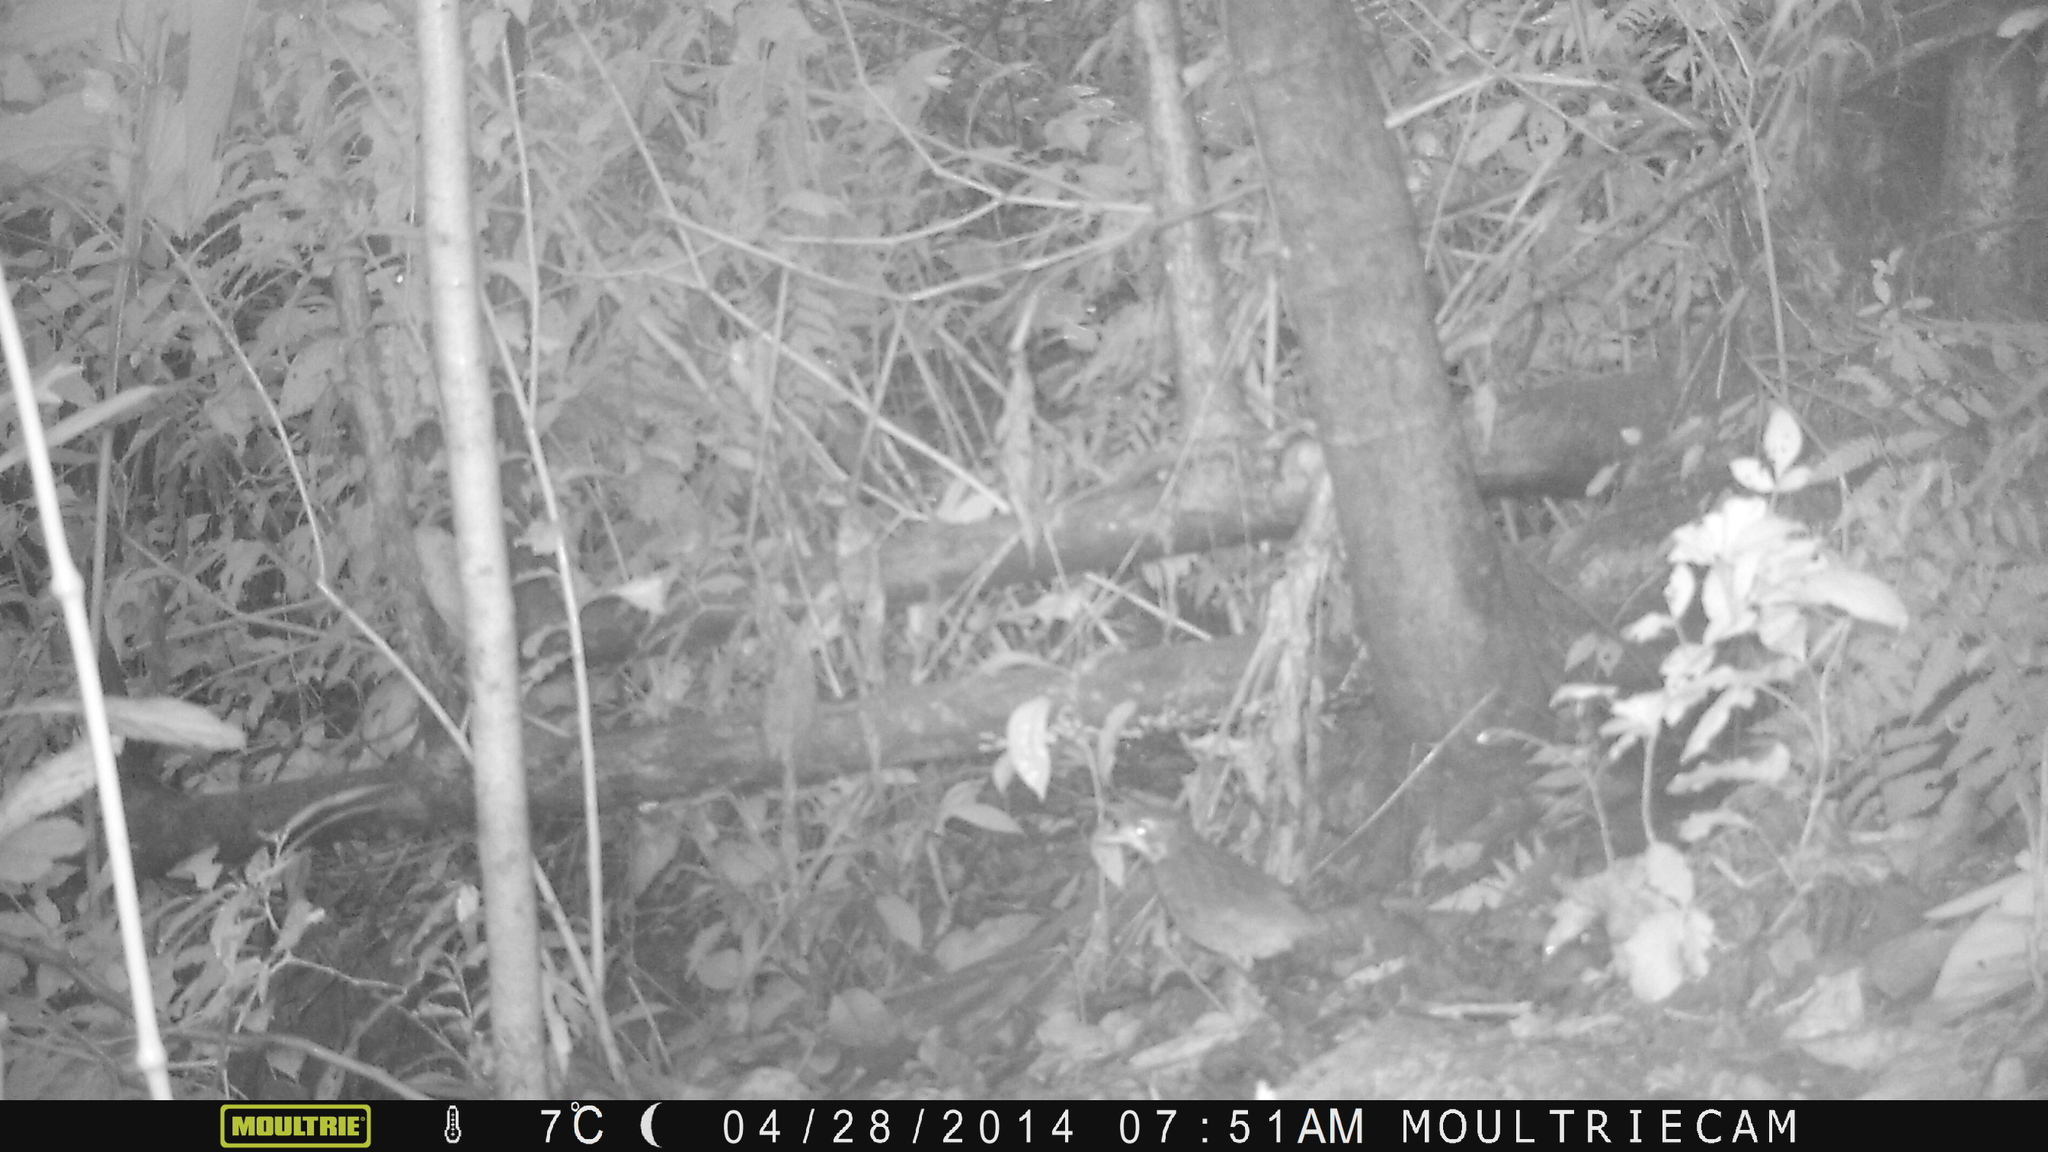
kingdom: Animalia
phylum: Chordata
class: Aves
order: Passeriformes
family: Grallariidae
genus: Grallaria
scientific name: Grallaria varia
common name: Variegated antpitta
